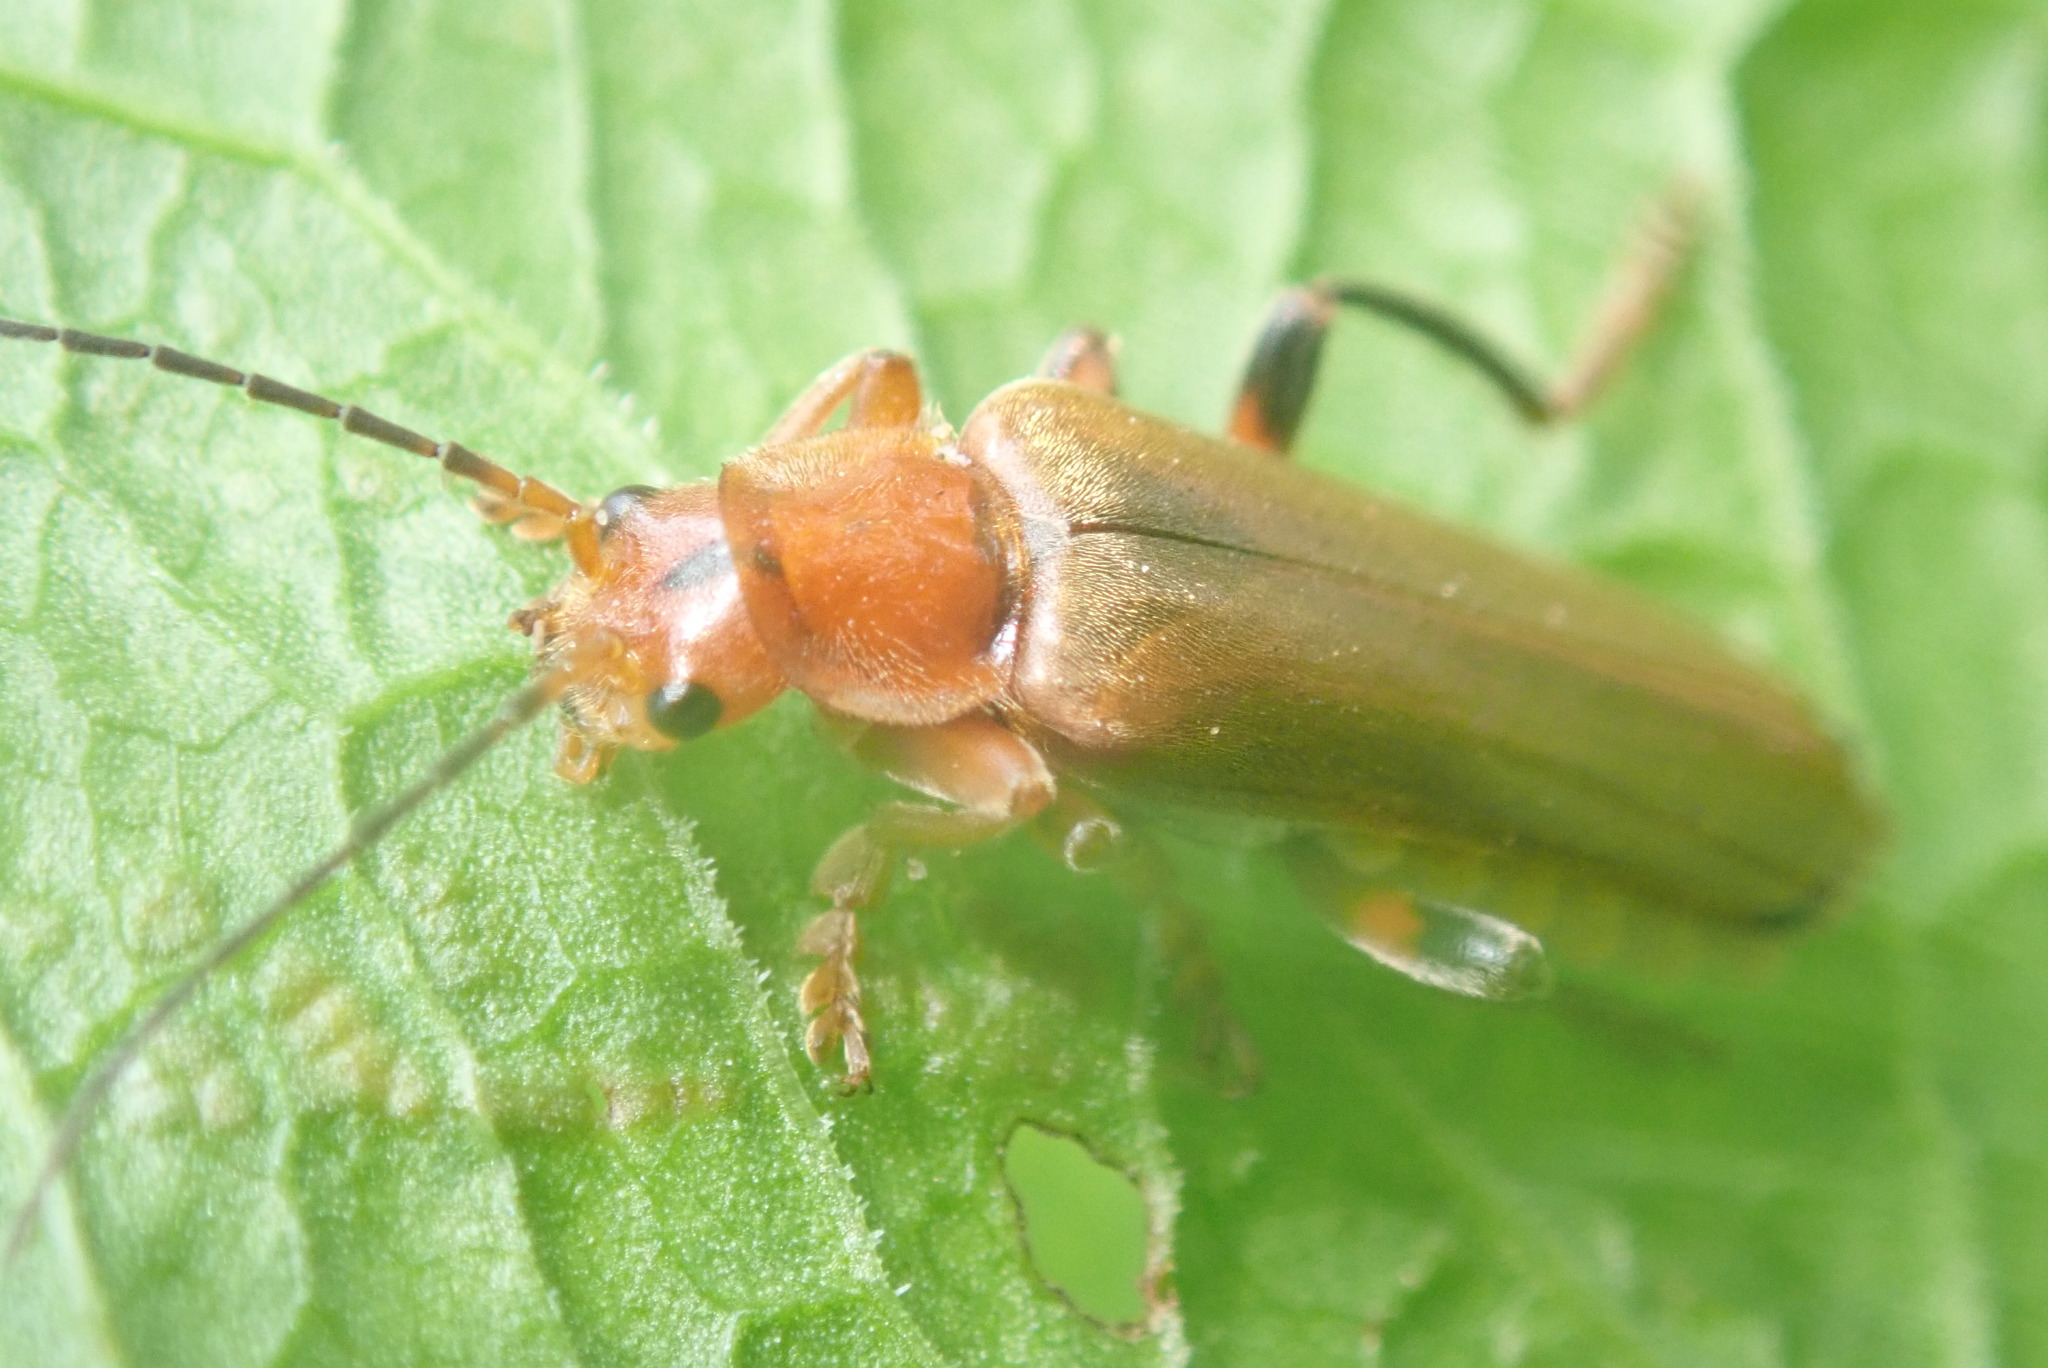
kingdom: Animalia
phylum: Arthropoda
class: Insecta
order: Coleoptera
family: Cantharidae
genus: Cantharis
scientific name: Cantharis livida
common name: Livid soldier beetle
